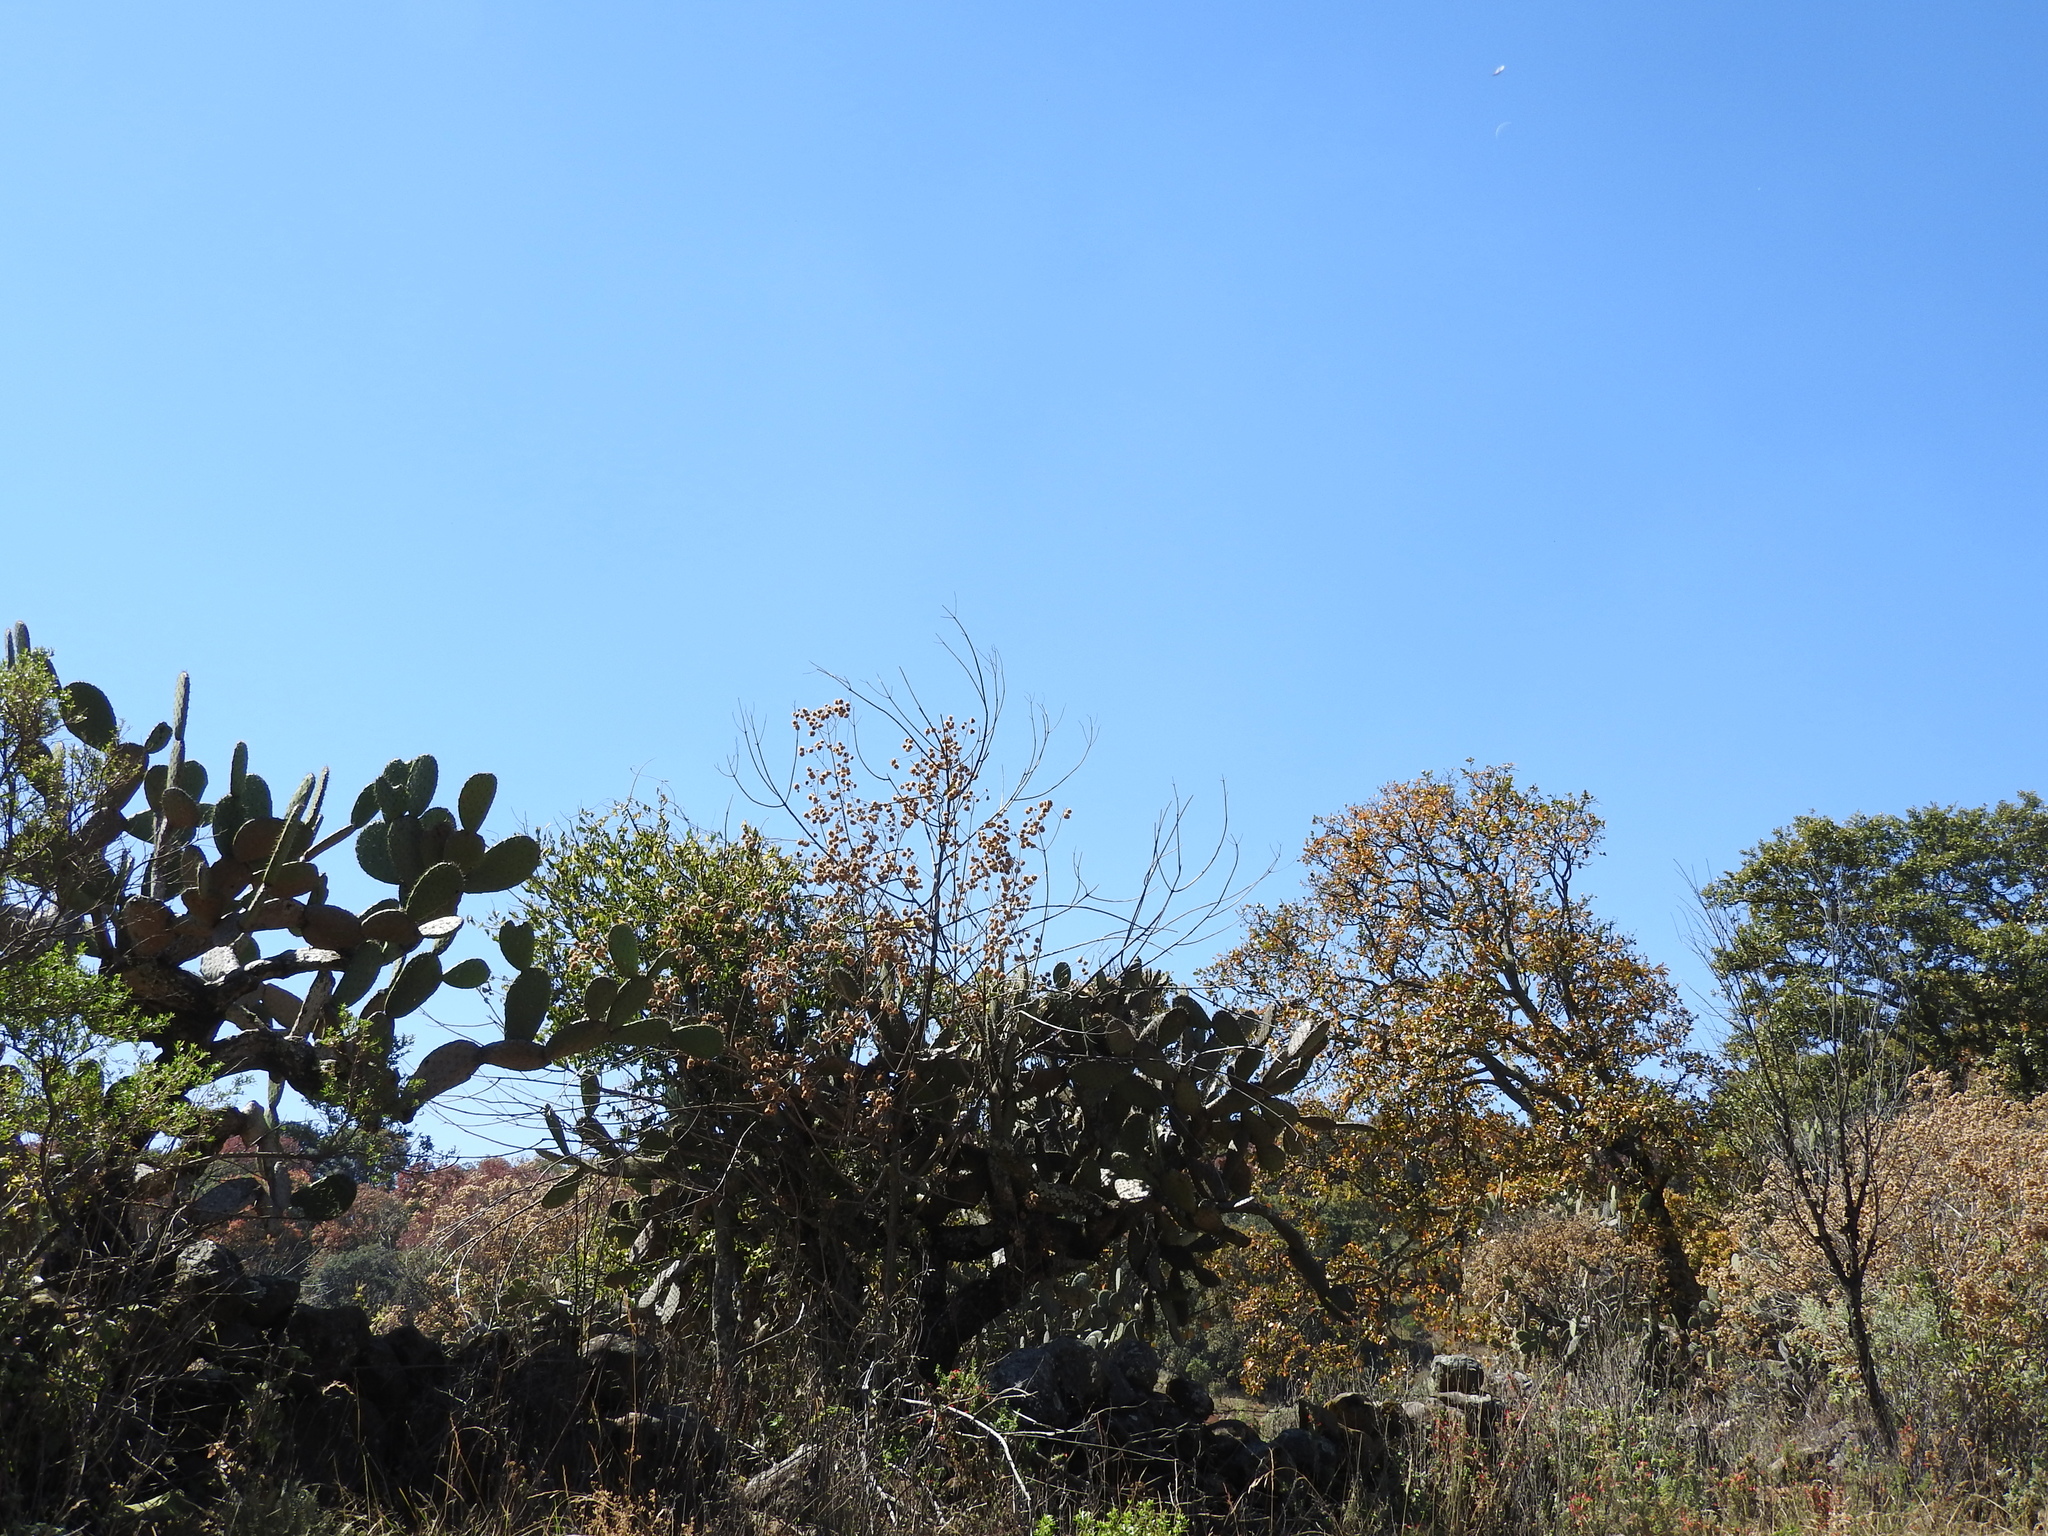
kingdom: Plantae
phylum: Tracheophyta
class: Magnoliopsida
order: Caryophyllales
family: Cactaceae
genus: Opuntia
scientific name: Opuntia
